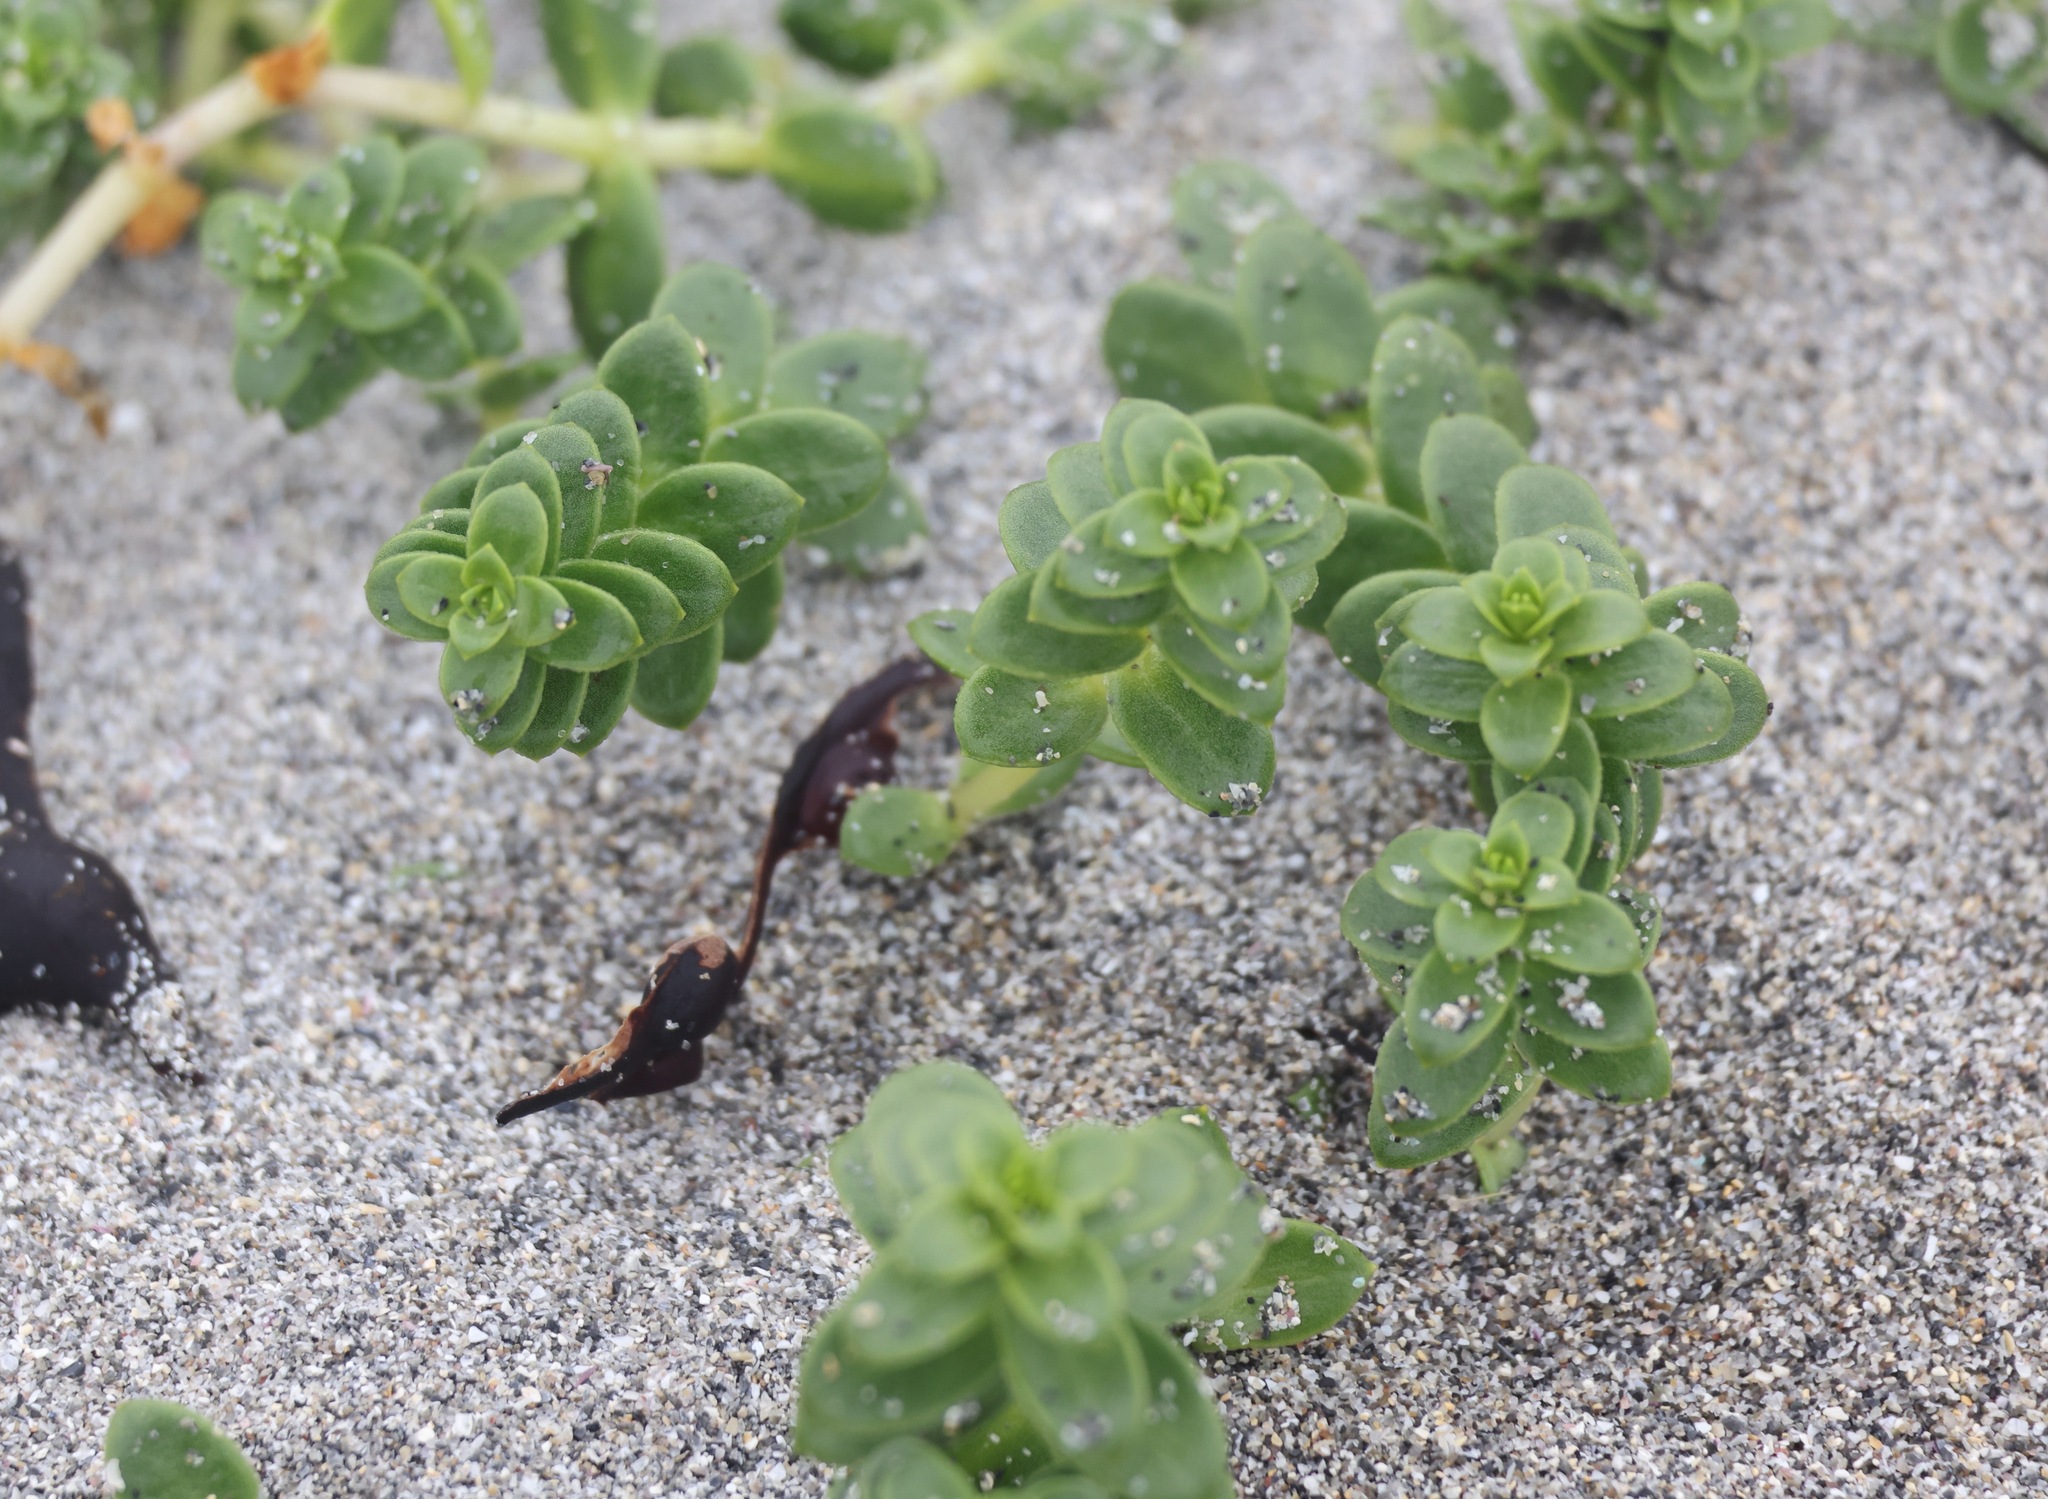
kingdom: Plantae
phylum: Tracheophyta
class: Magnoliopsida
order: Caryophyllales
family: Caryophyllaceae
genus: Honckenya
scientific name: Honckenya peploides
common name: Sea sandwort
